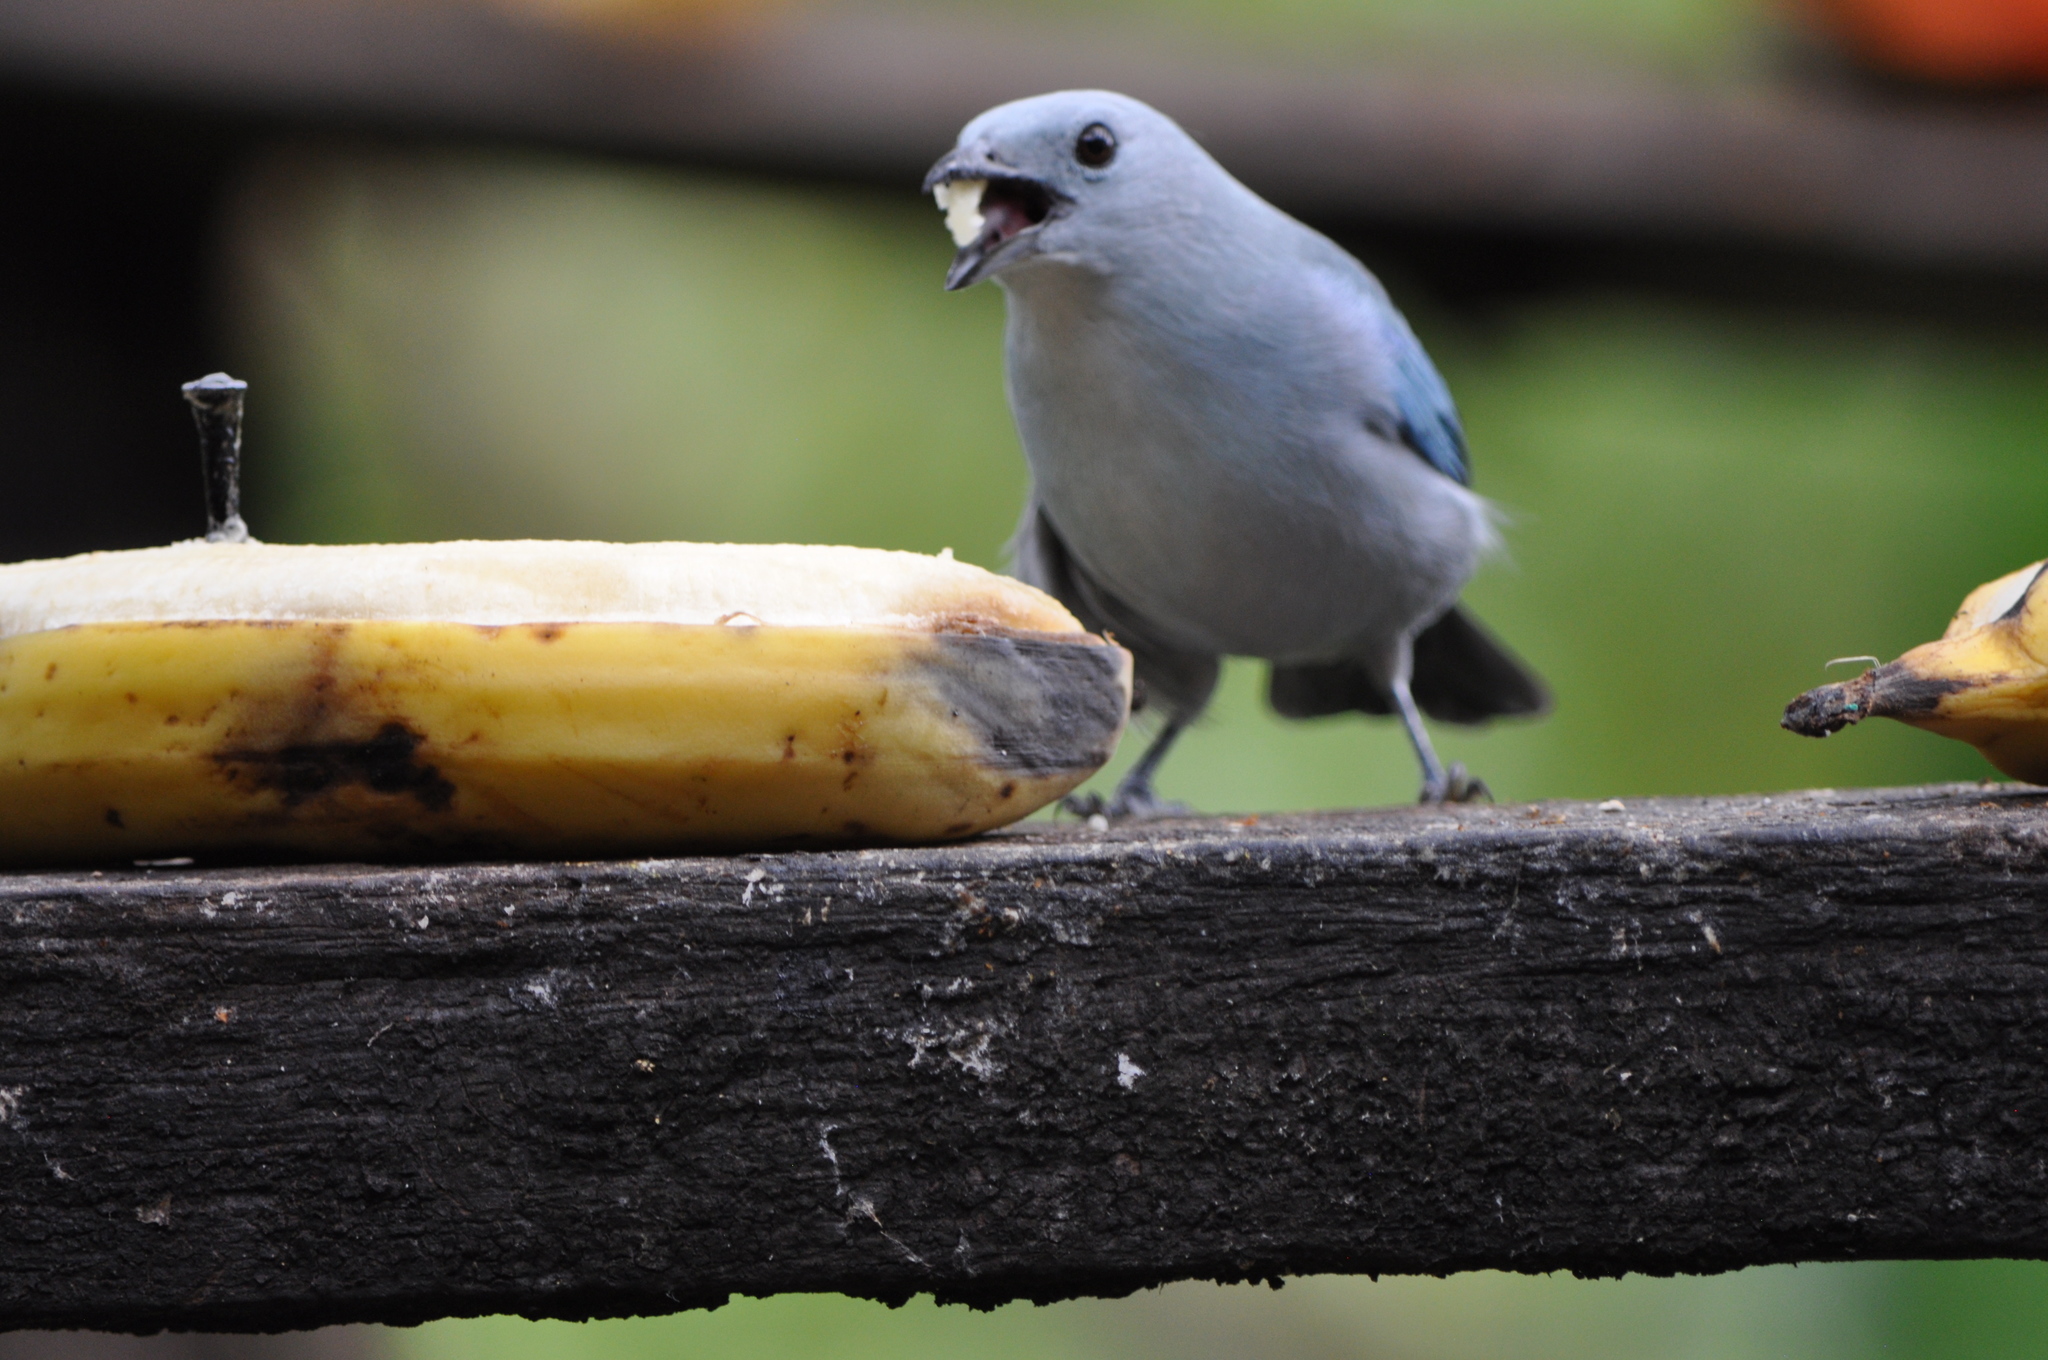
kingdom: Animalia
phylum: Chordata
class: Aves
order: Passeriformes
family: Thraupidae
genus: Thraupis
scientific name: Thraupis episcopus
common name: Blue-grey tanager
